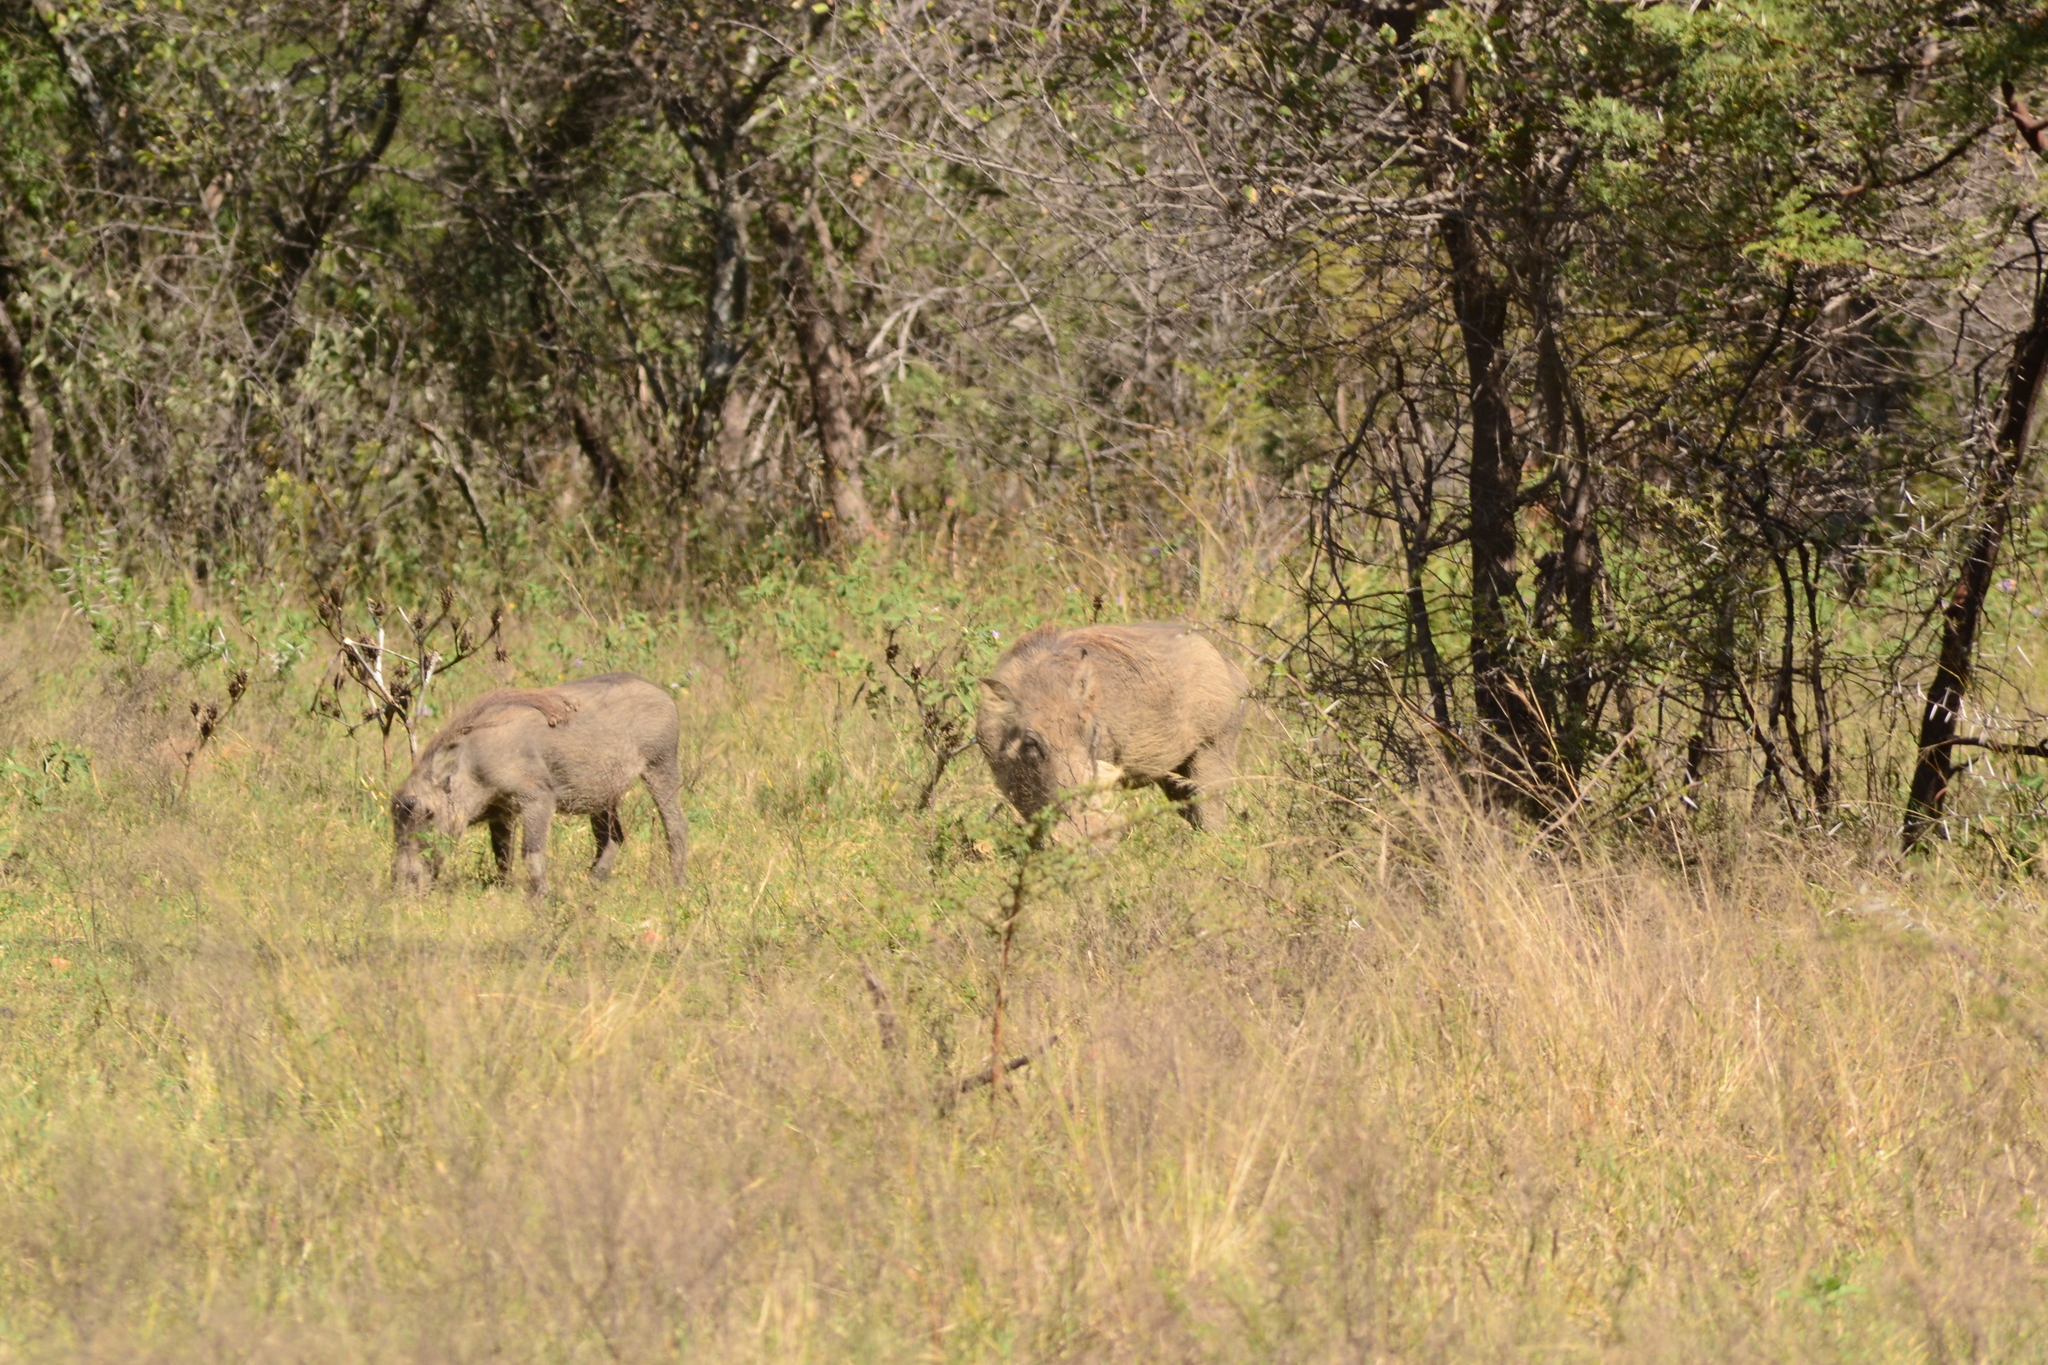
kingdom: Animalia
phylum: Chordata
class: Mammalia
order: Artiodactyla
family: Suidae
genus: Phacochoerus
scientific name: Phacochoerus africanus
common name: Common warthog
